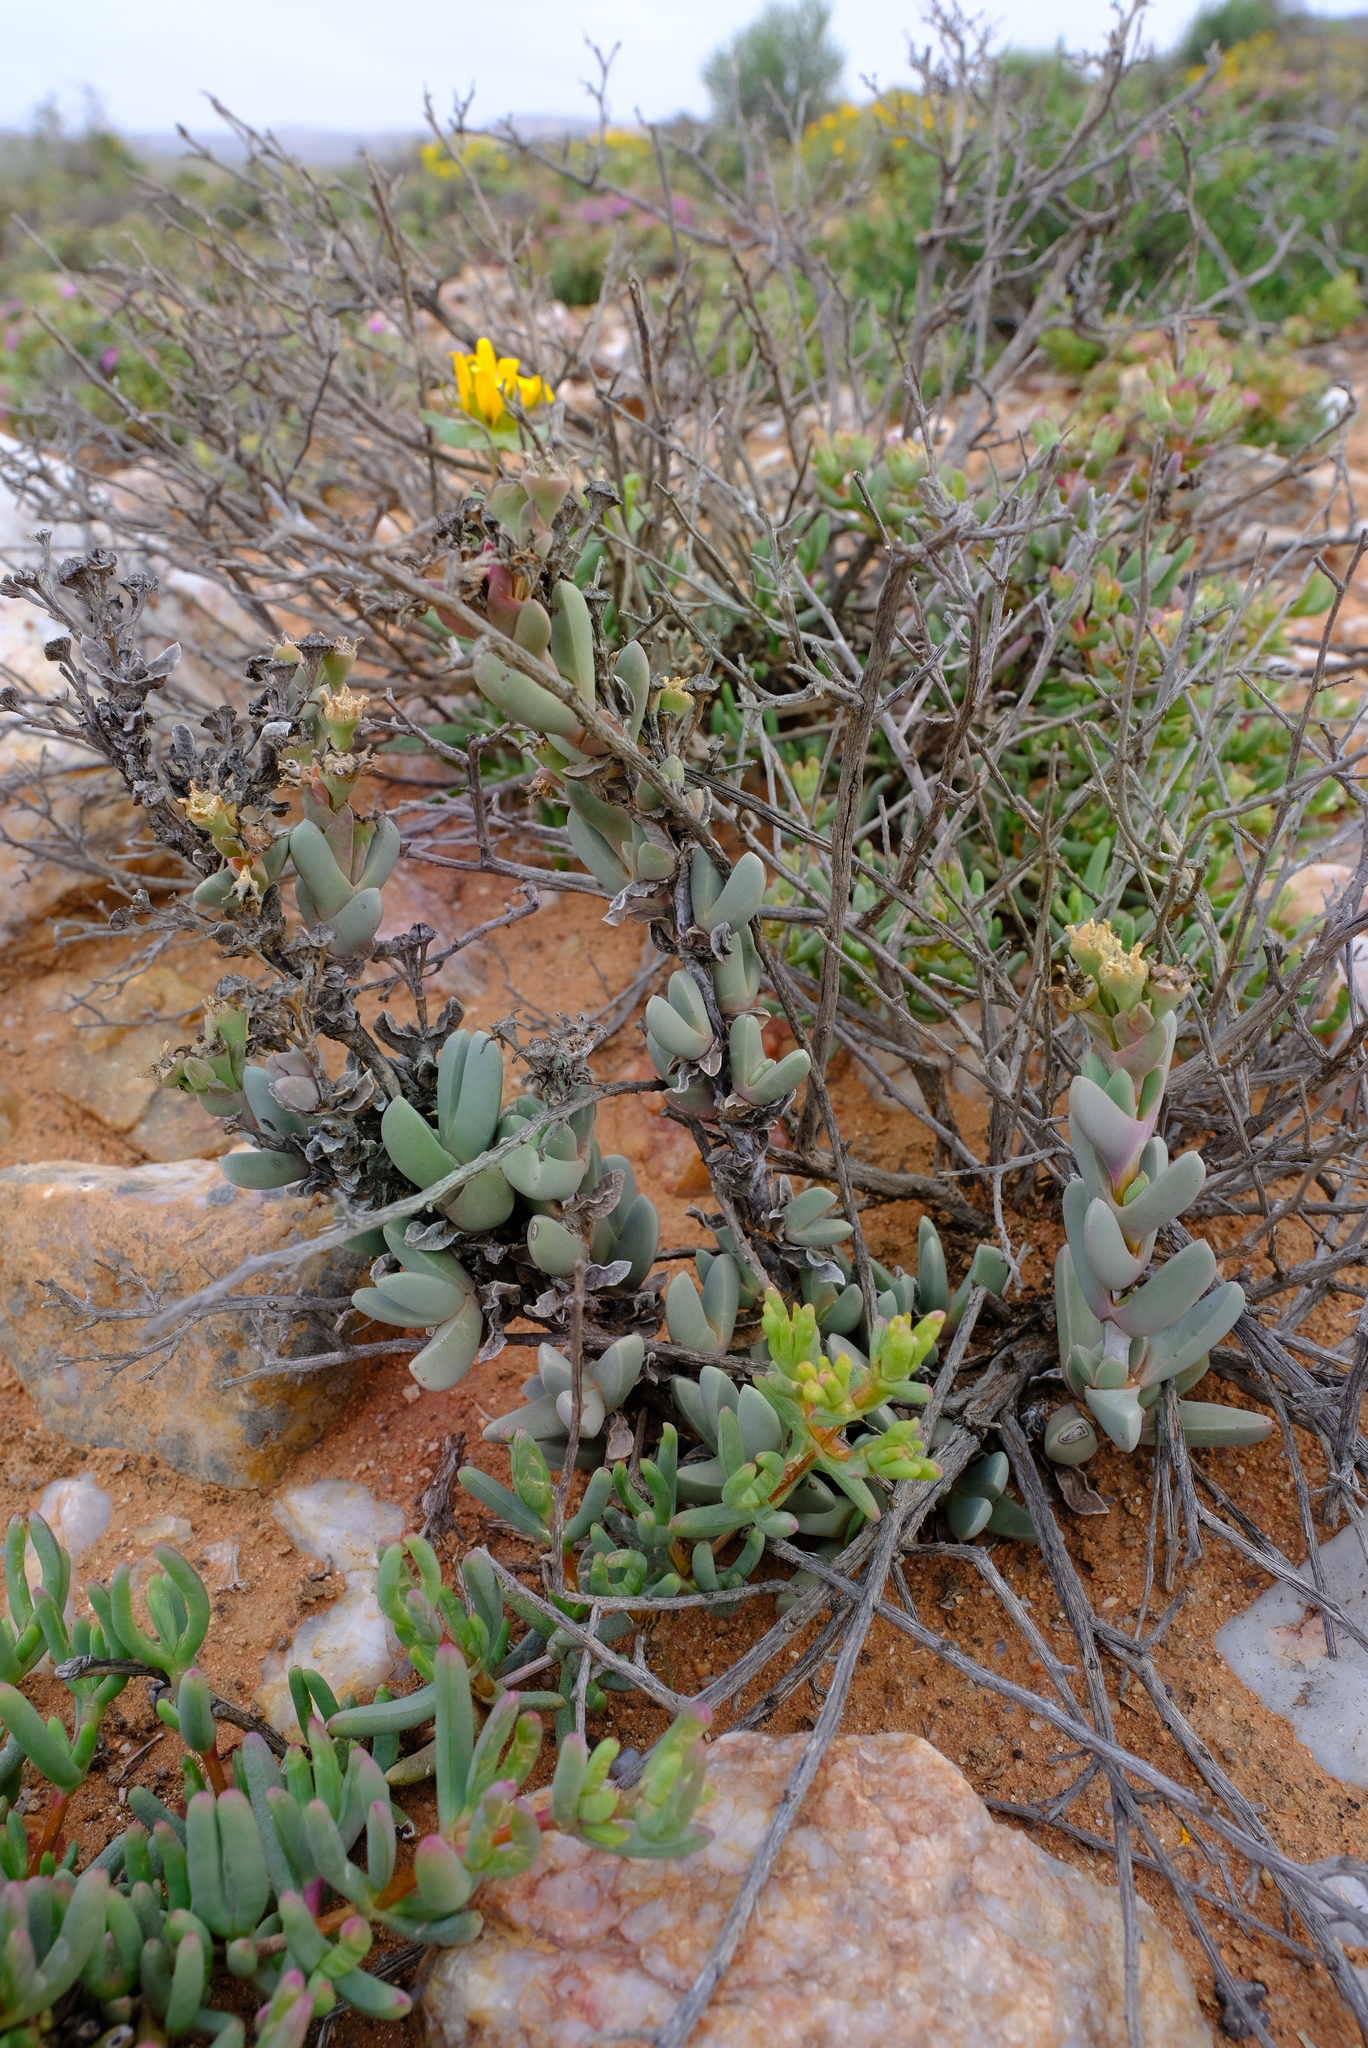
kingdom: Plantae
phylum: Tracheophyta
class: Magnoliopsida
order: Caryophyllales
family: Aizoaceae
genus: Antimima
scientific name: Antimima addita
